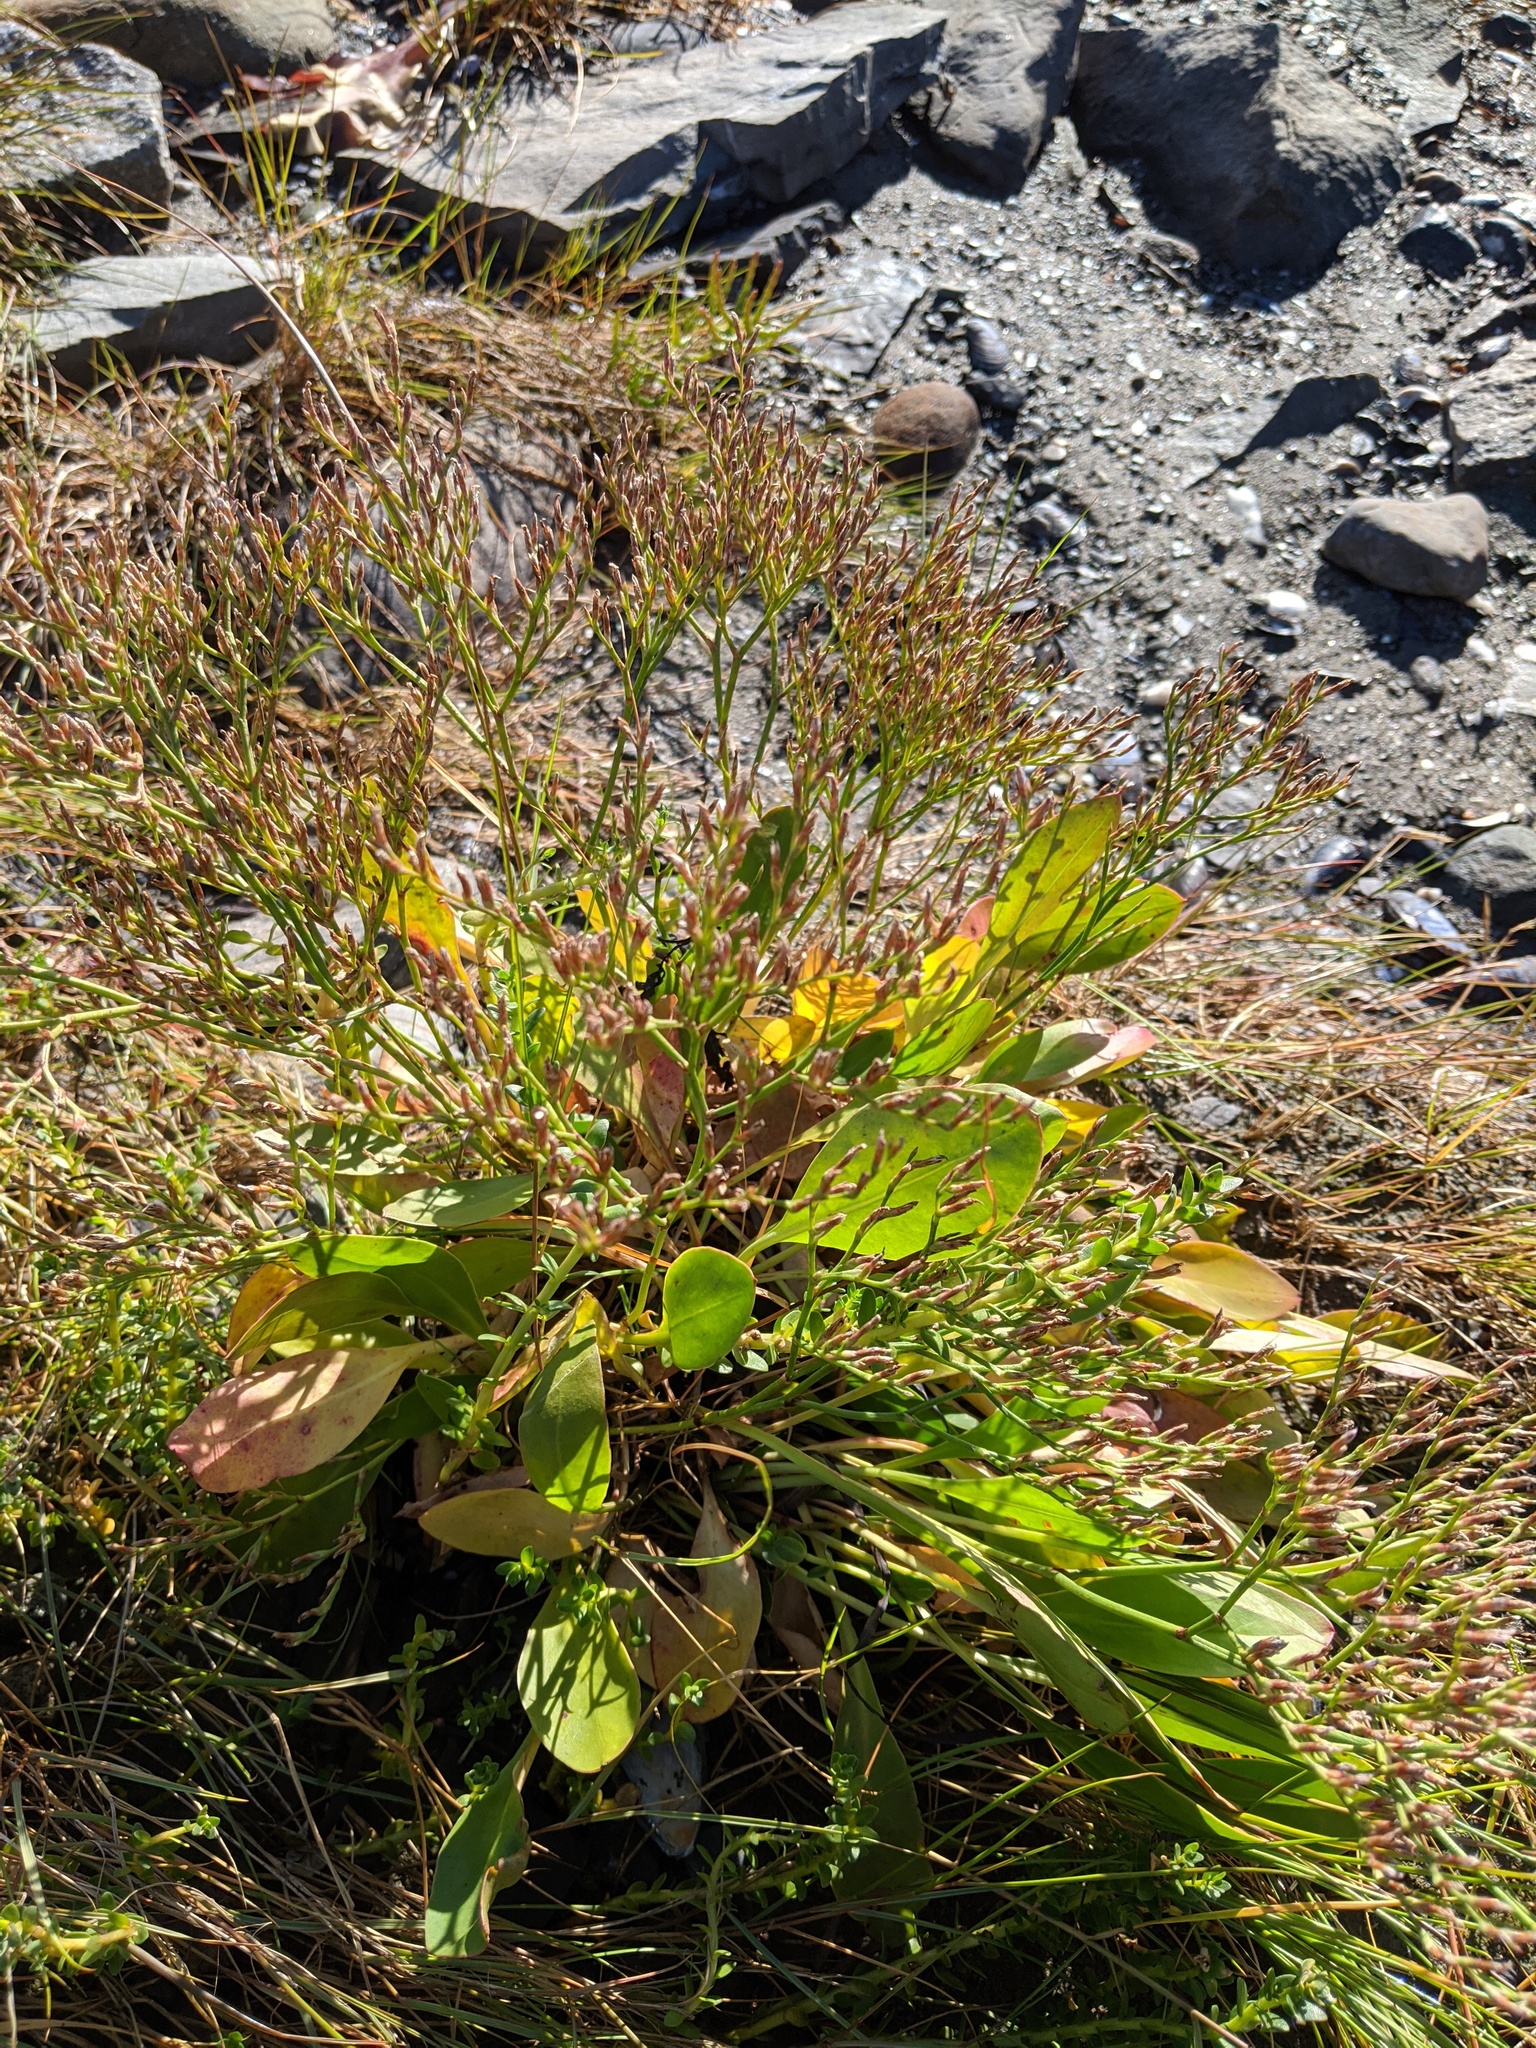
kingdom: Plantae
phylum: Tracheophyta
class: Magnoliopsida
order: Caryophyllales
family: Plumbaginaceae
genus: Limonium
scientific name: Limonium carolinianum
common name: Carolina sea lavender
